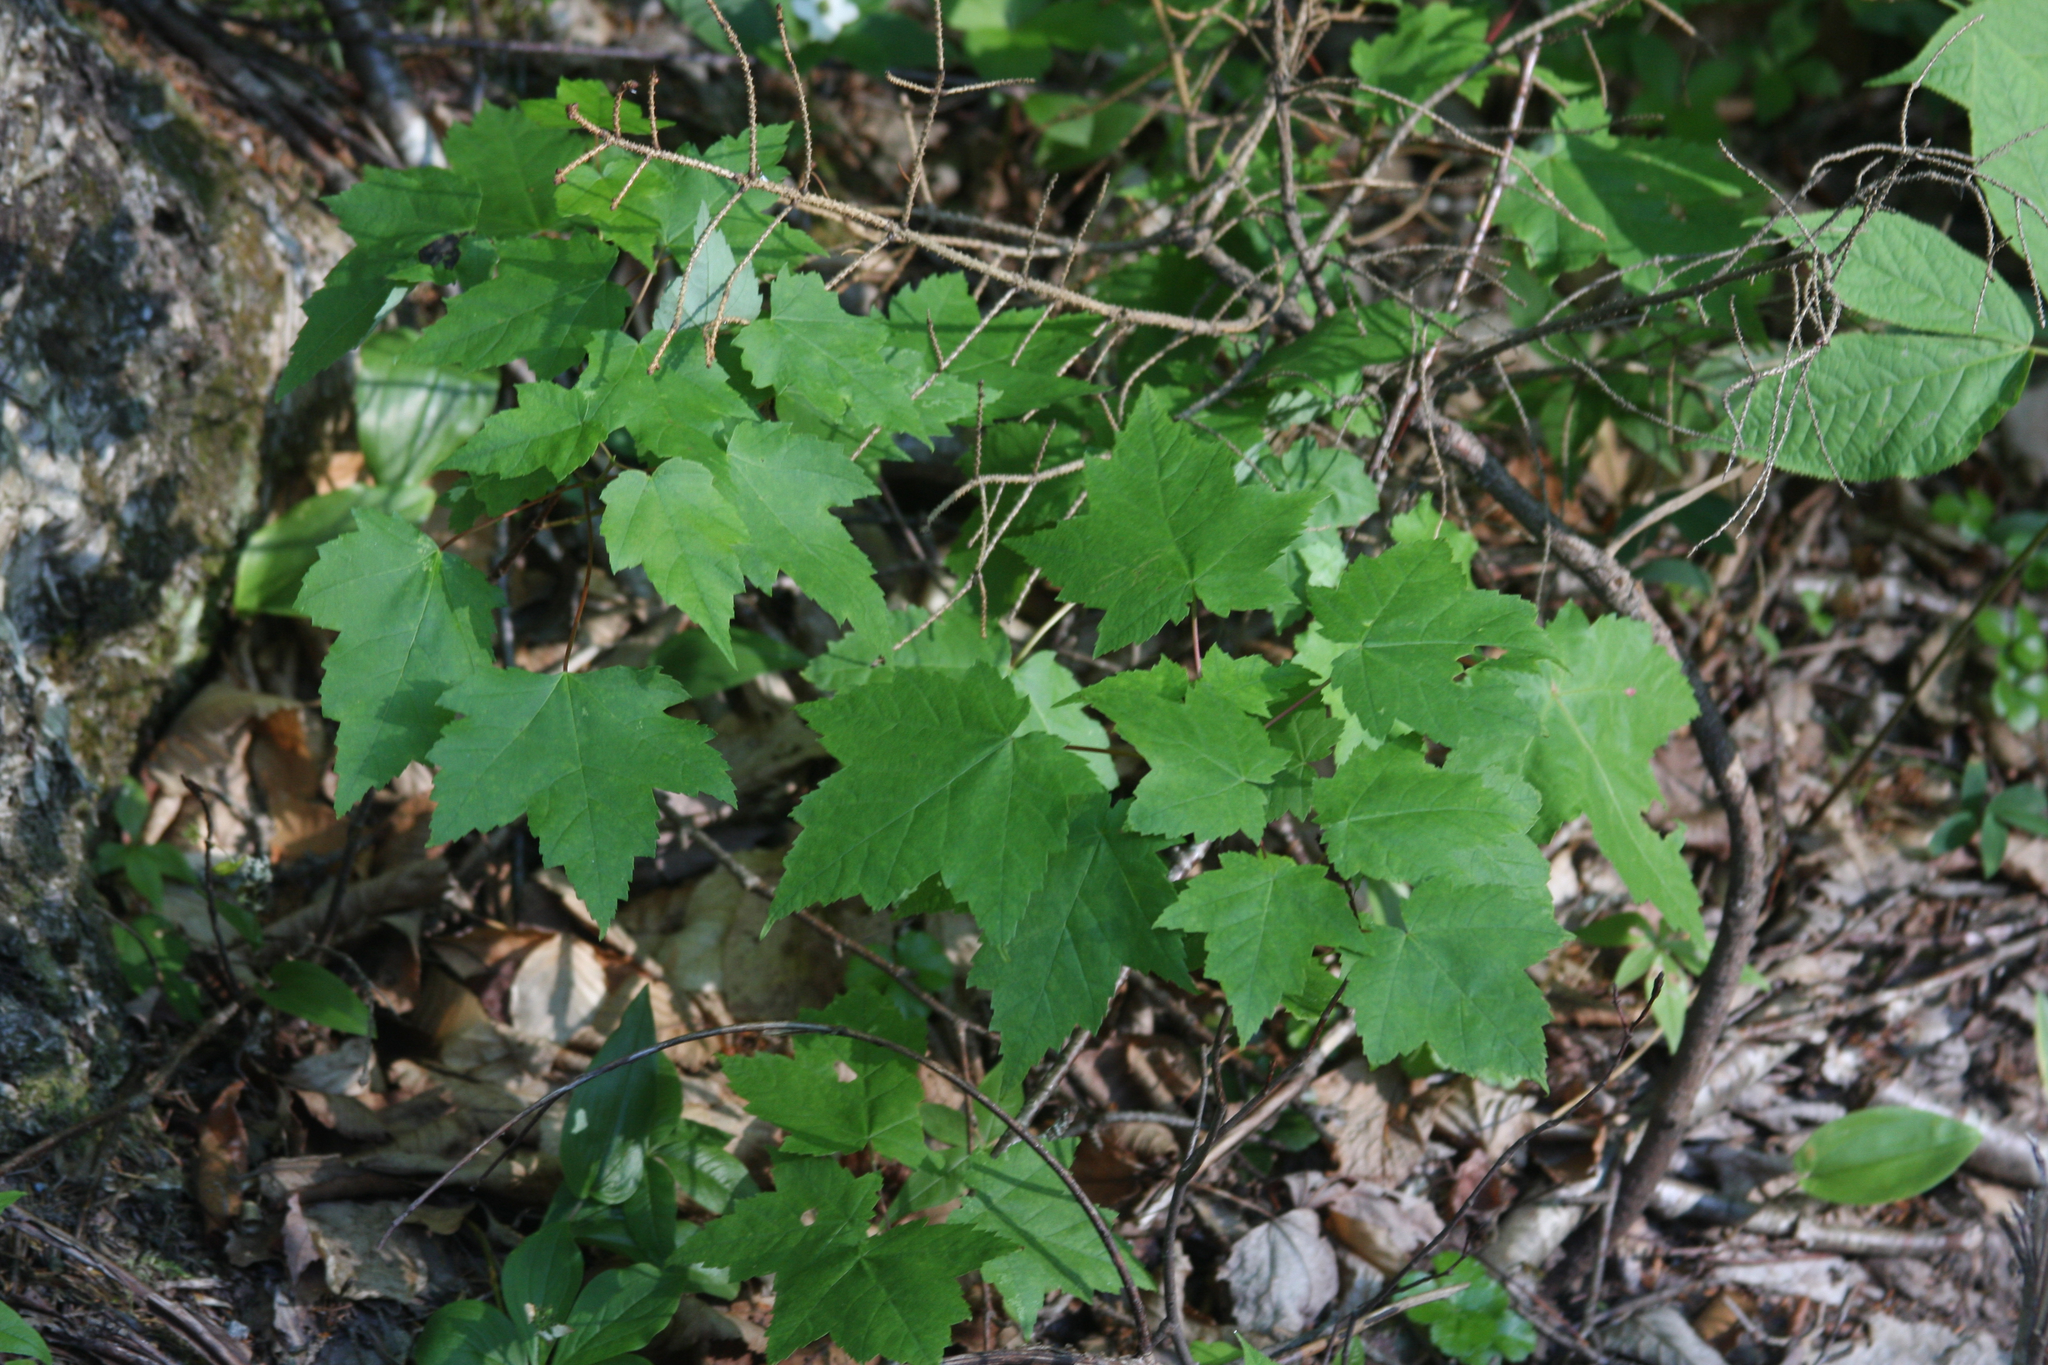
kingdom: Plantae
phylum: Tracheophyta
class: Magnoliopsida
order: Sapindales
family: Sapindaceae
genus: Acer
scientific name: Acer rubrum
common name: Red maple
